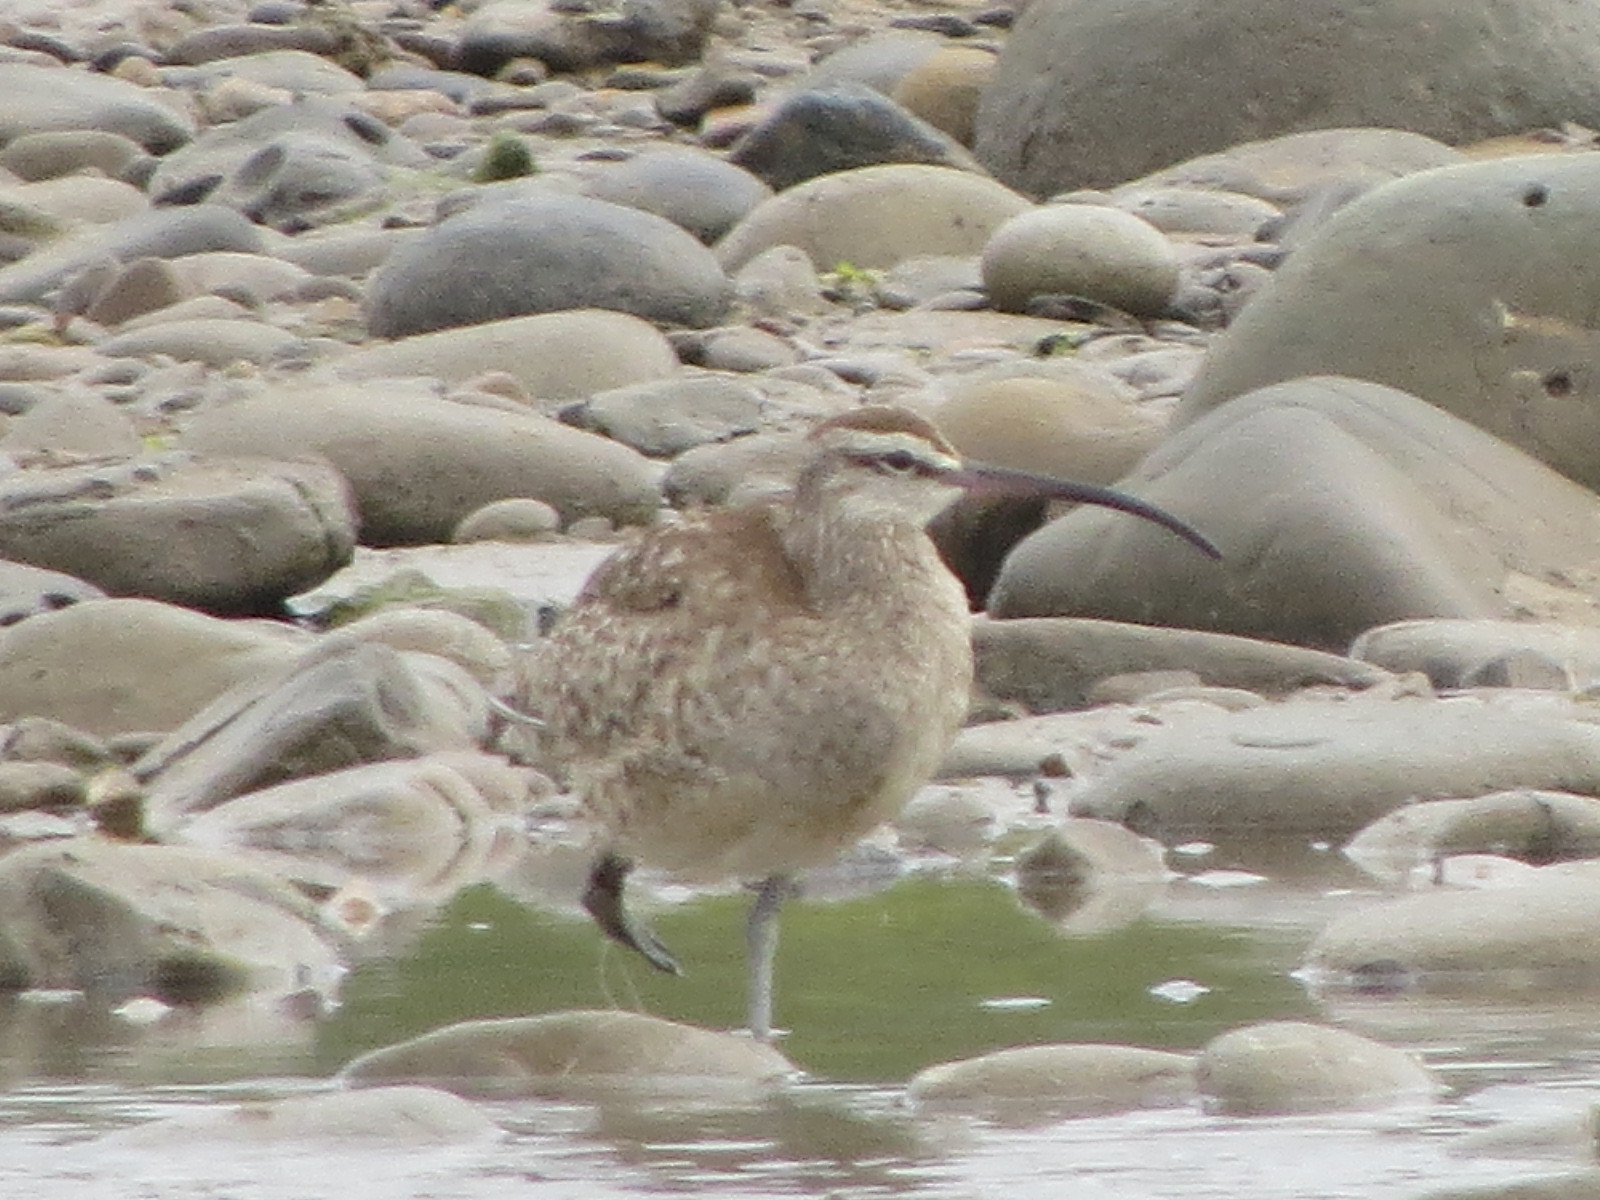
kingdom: Animalia
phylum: Chordata
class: Aves
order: Charadriiformes
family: Scolopacidae
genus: Numenius
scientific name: Numenius phaeopus
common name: Whimbrel
